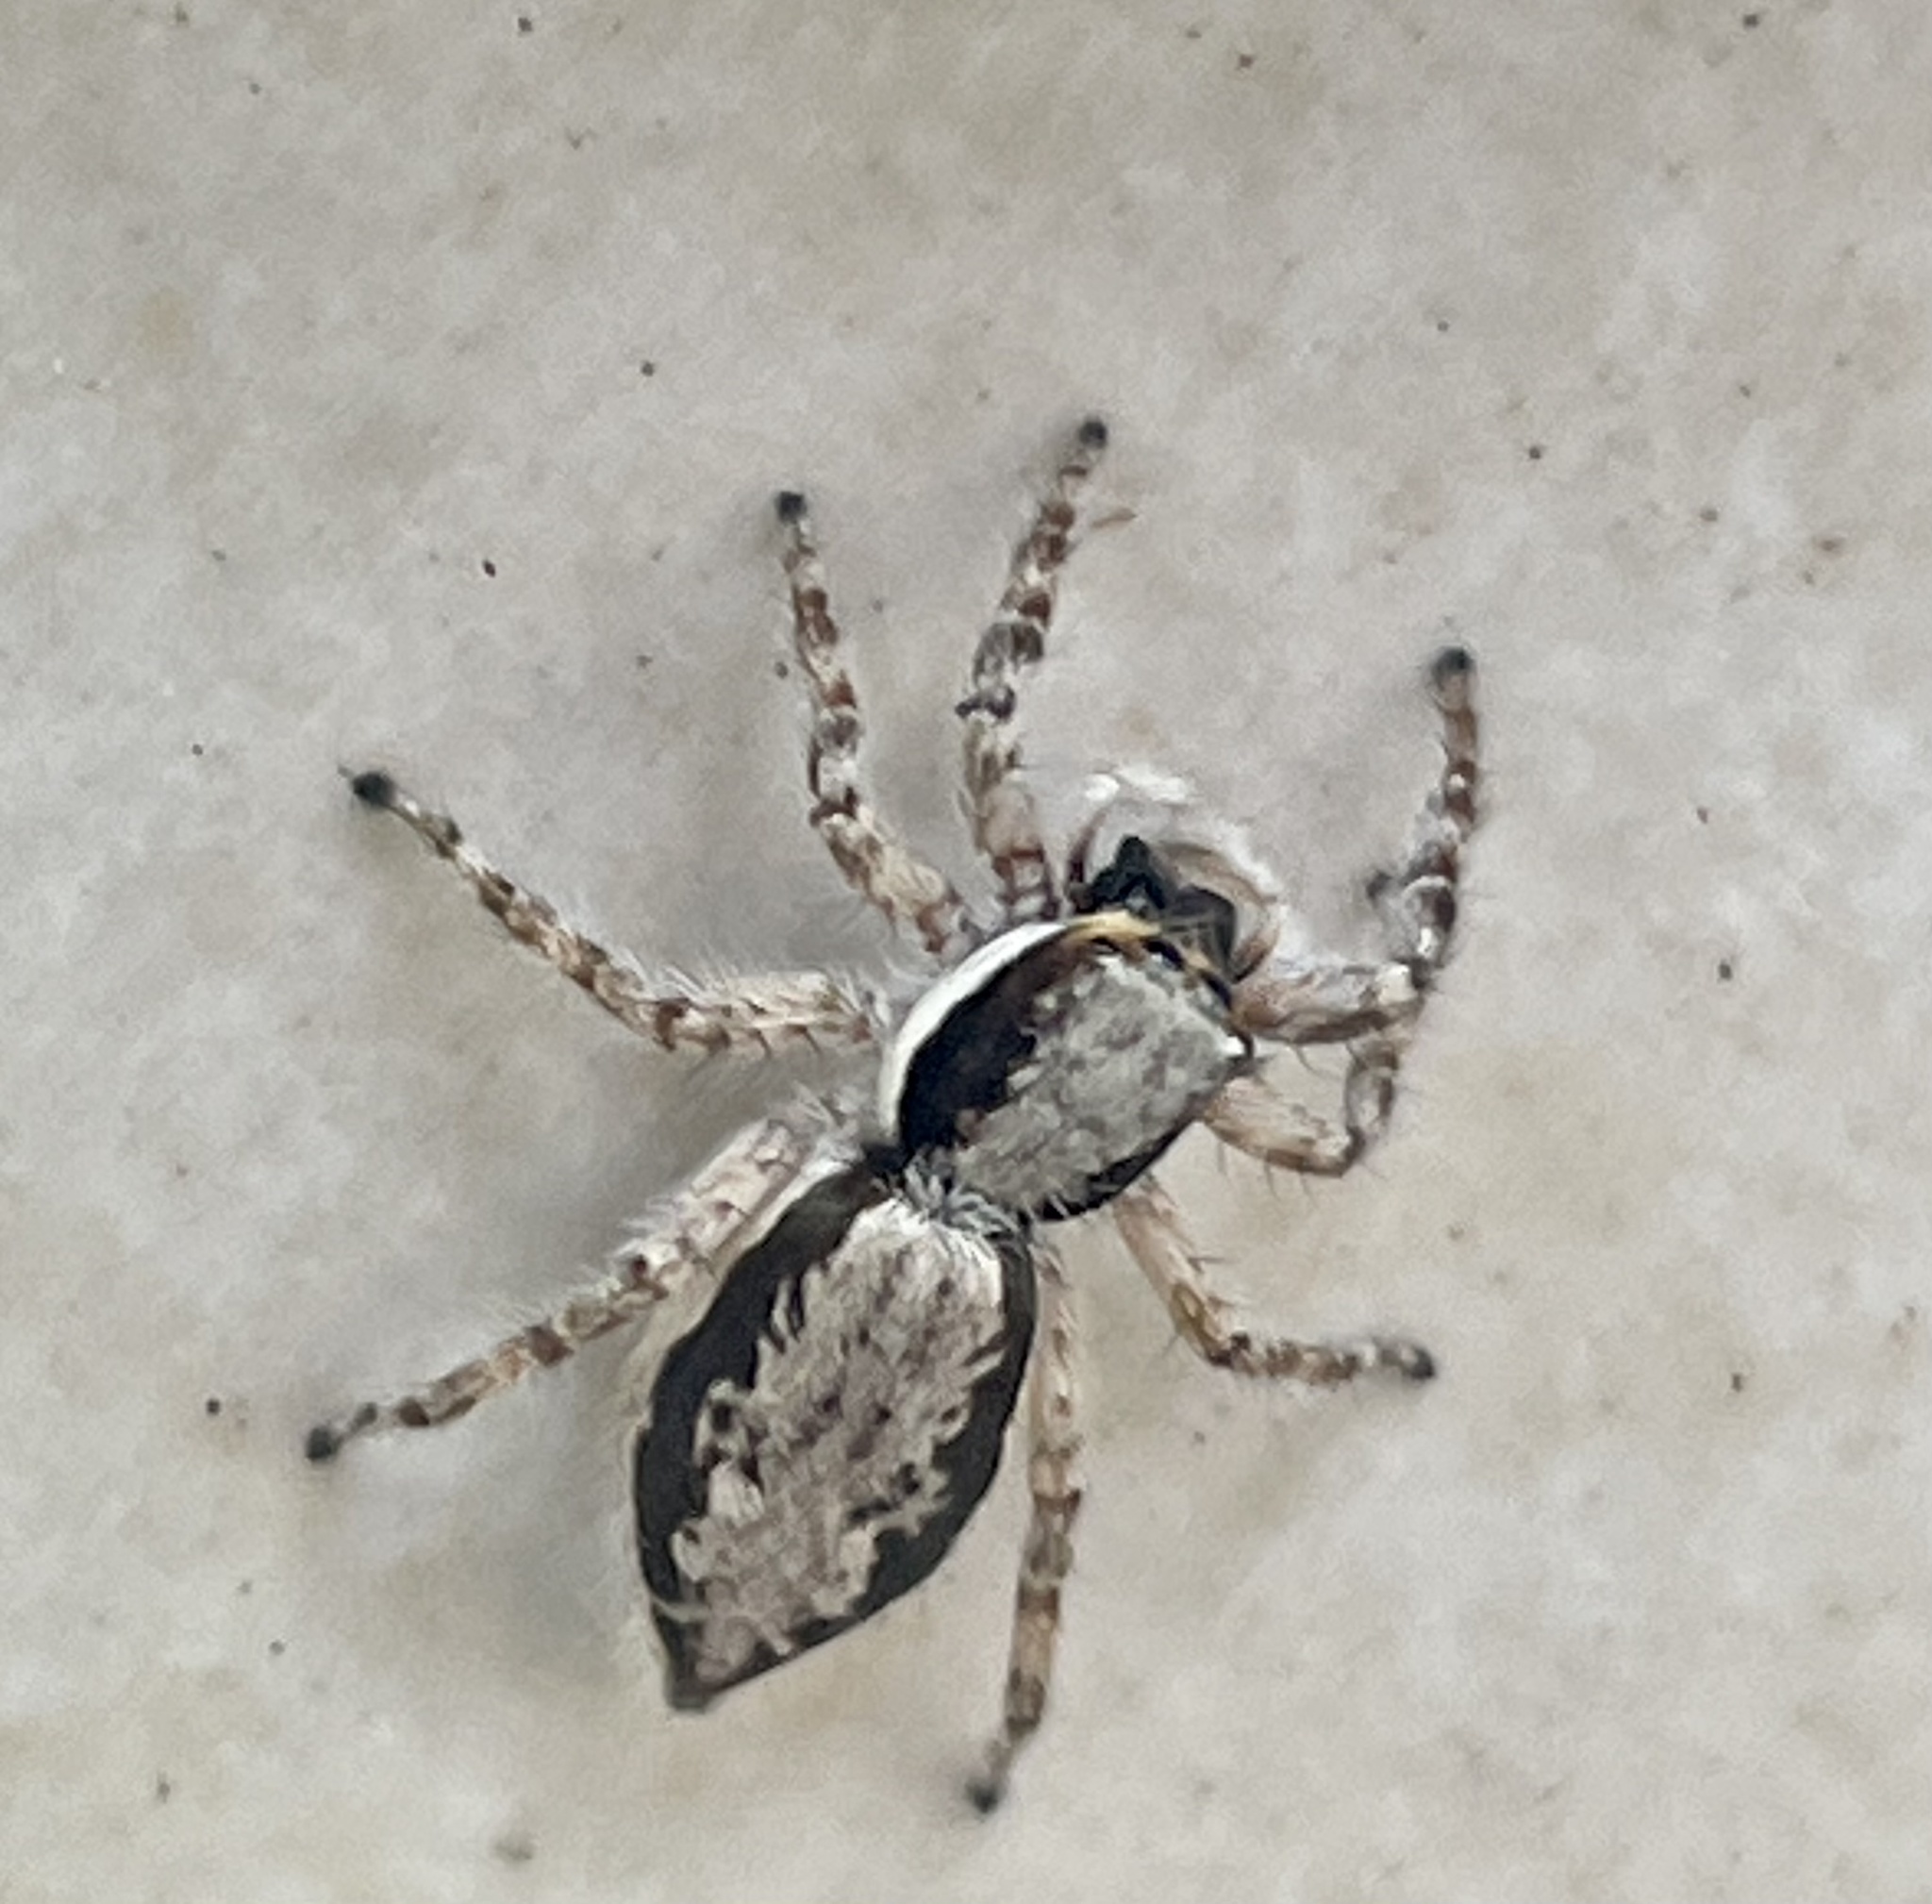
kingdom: Animalia
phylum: Arthropoda
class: Arachnida
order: Araneae
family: Salticidae
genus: Menemerus
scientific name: Menemerus bivittatus
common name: Gray wall jumper
